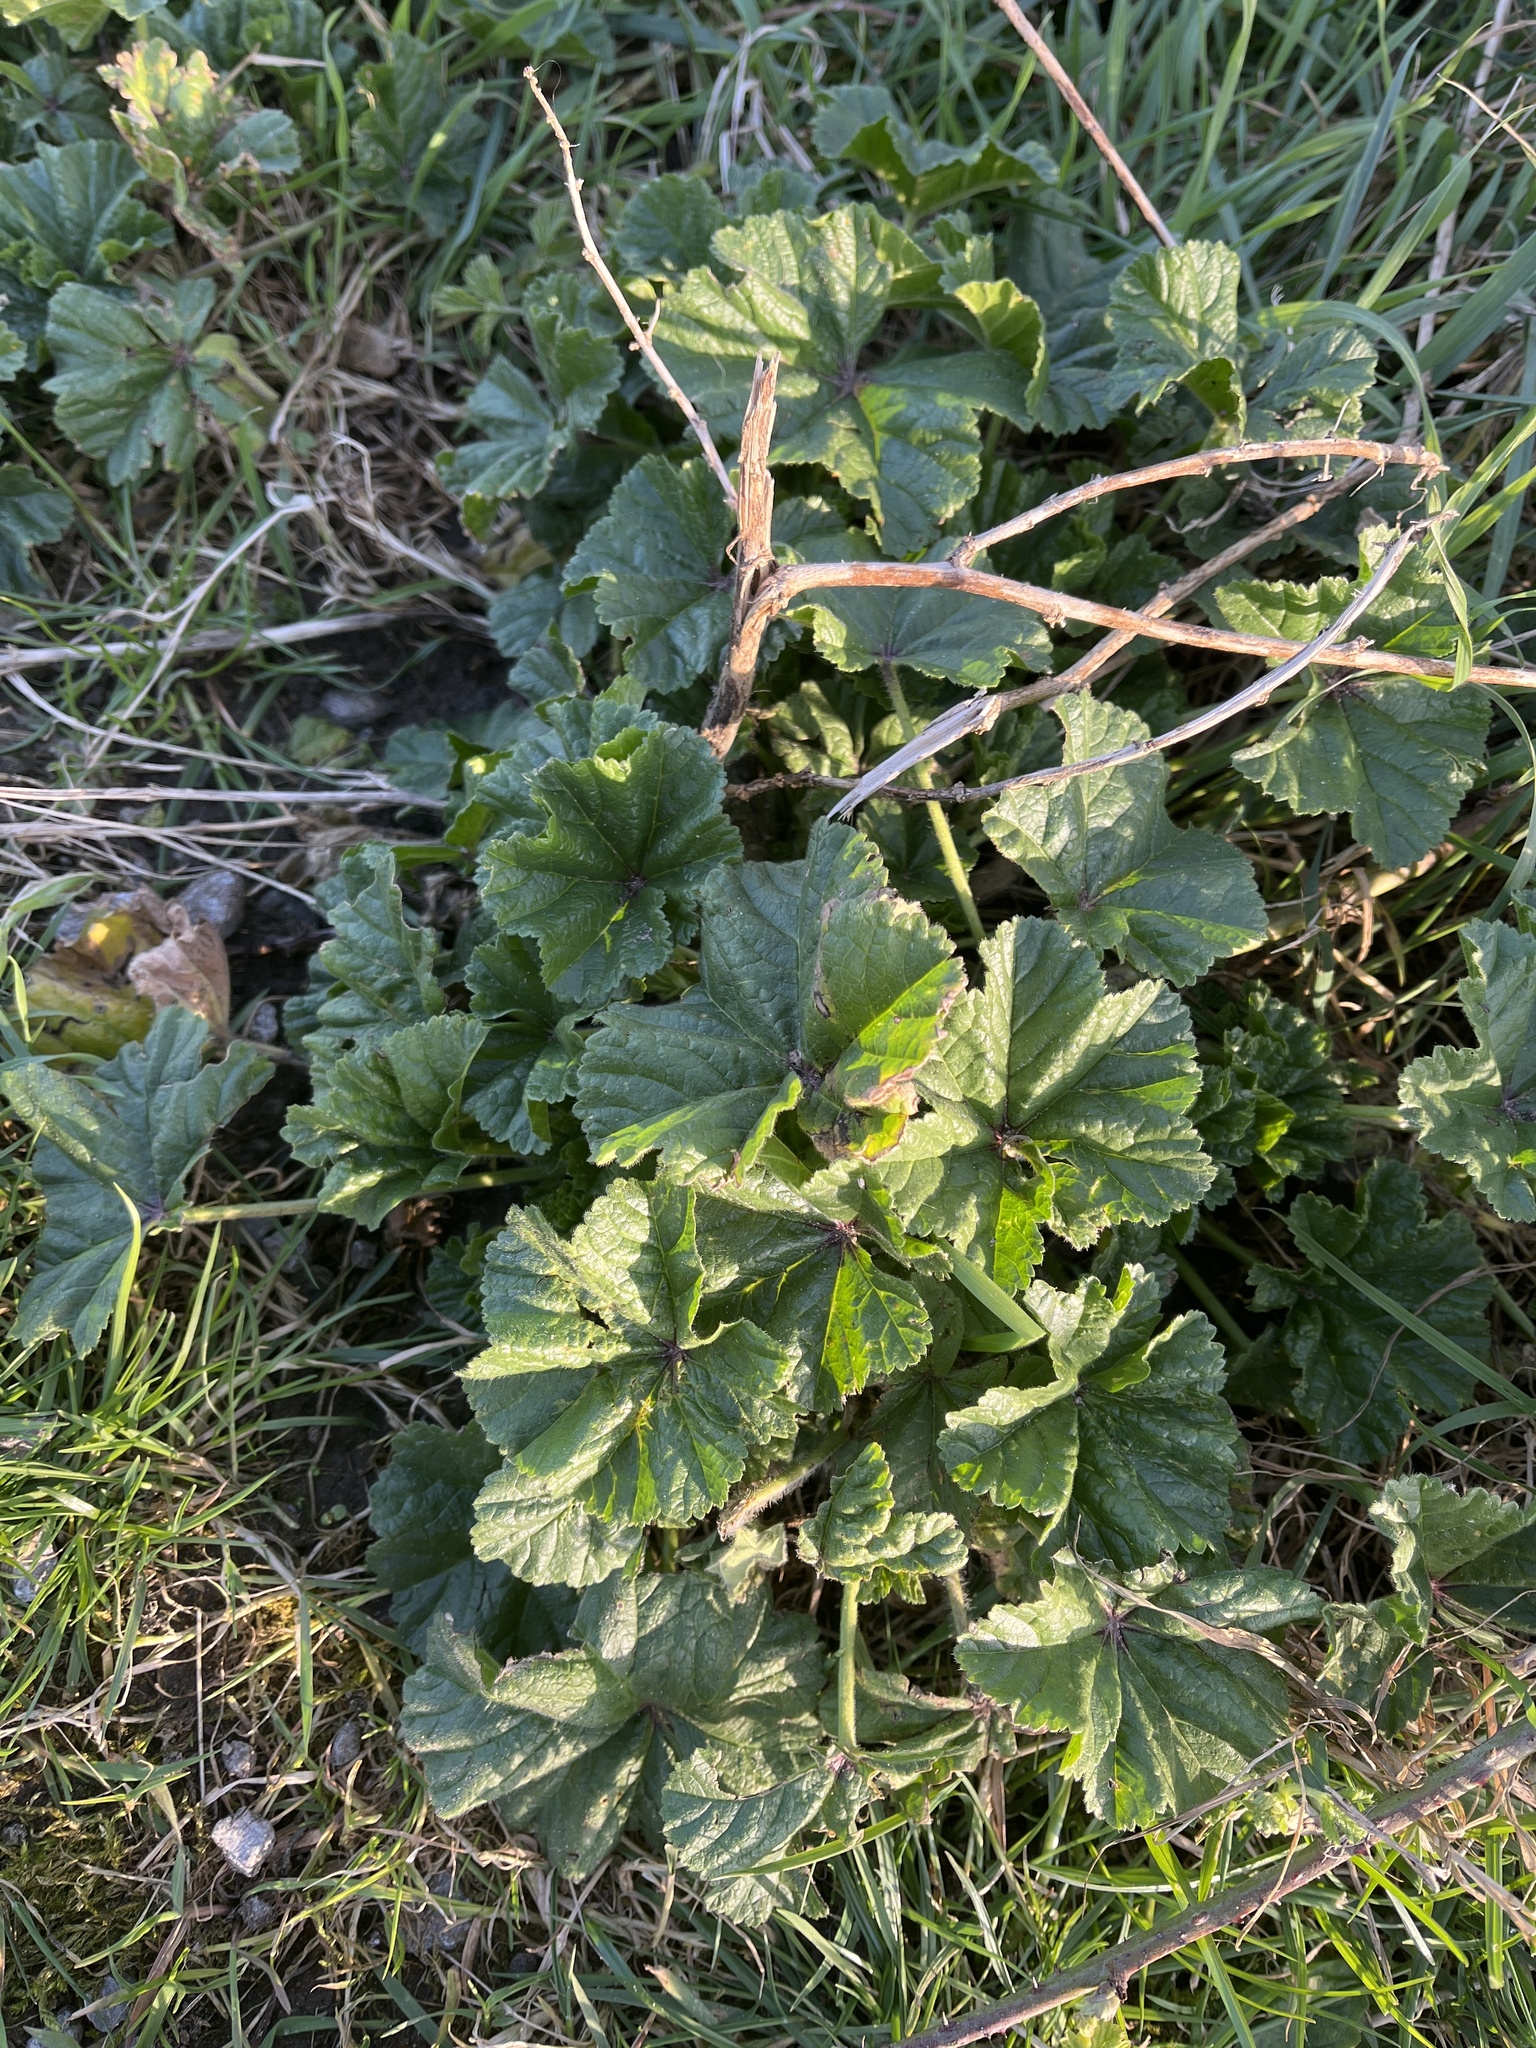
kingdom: Plantae
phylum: Tracheophyta
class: Magnoliopsida
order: Malvales
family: Malvaceae
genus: Malva
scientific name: Malva sylvestris
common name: Common mallow
